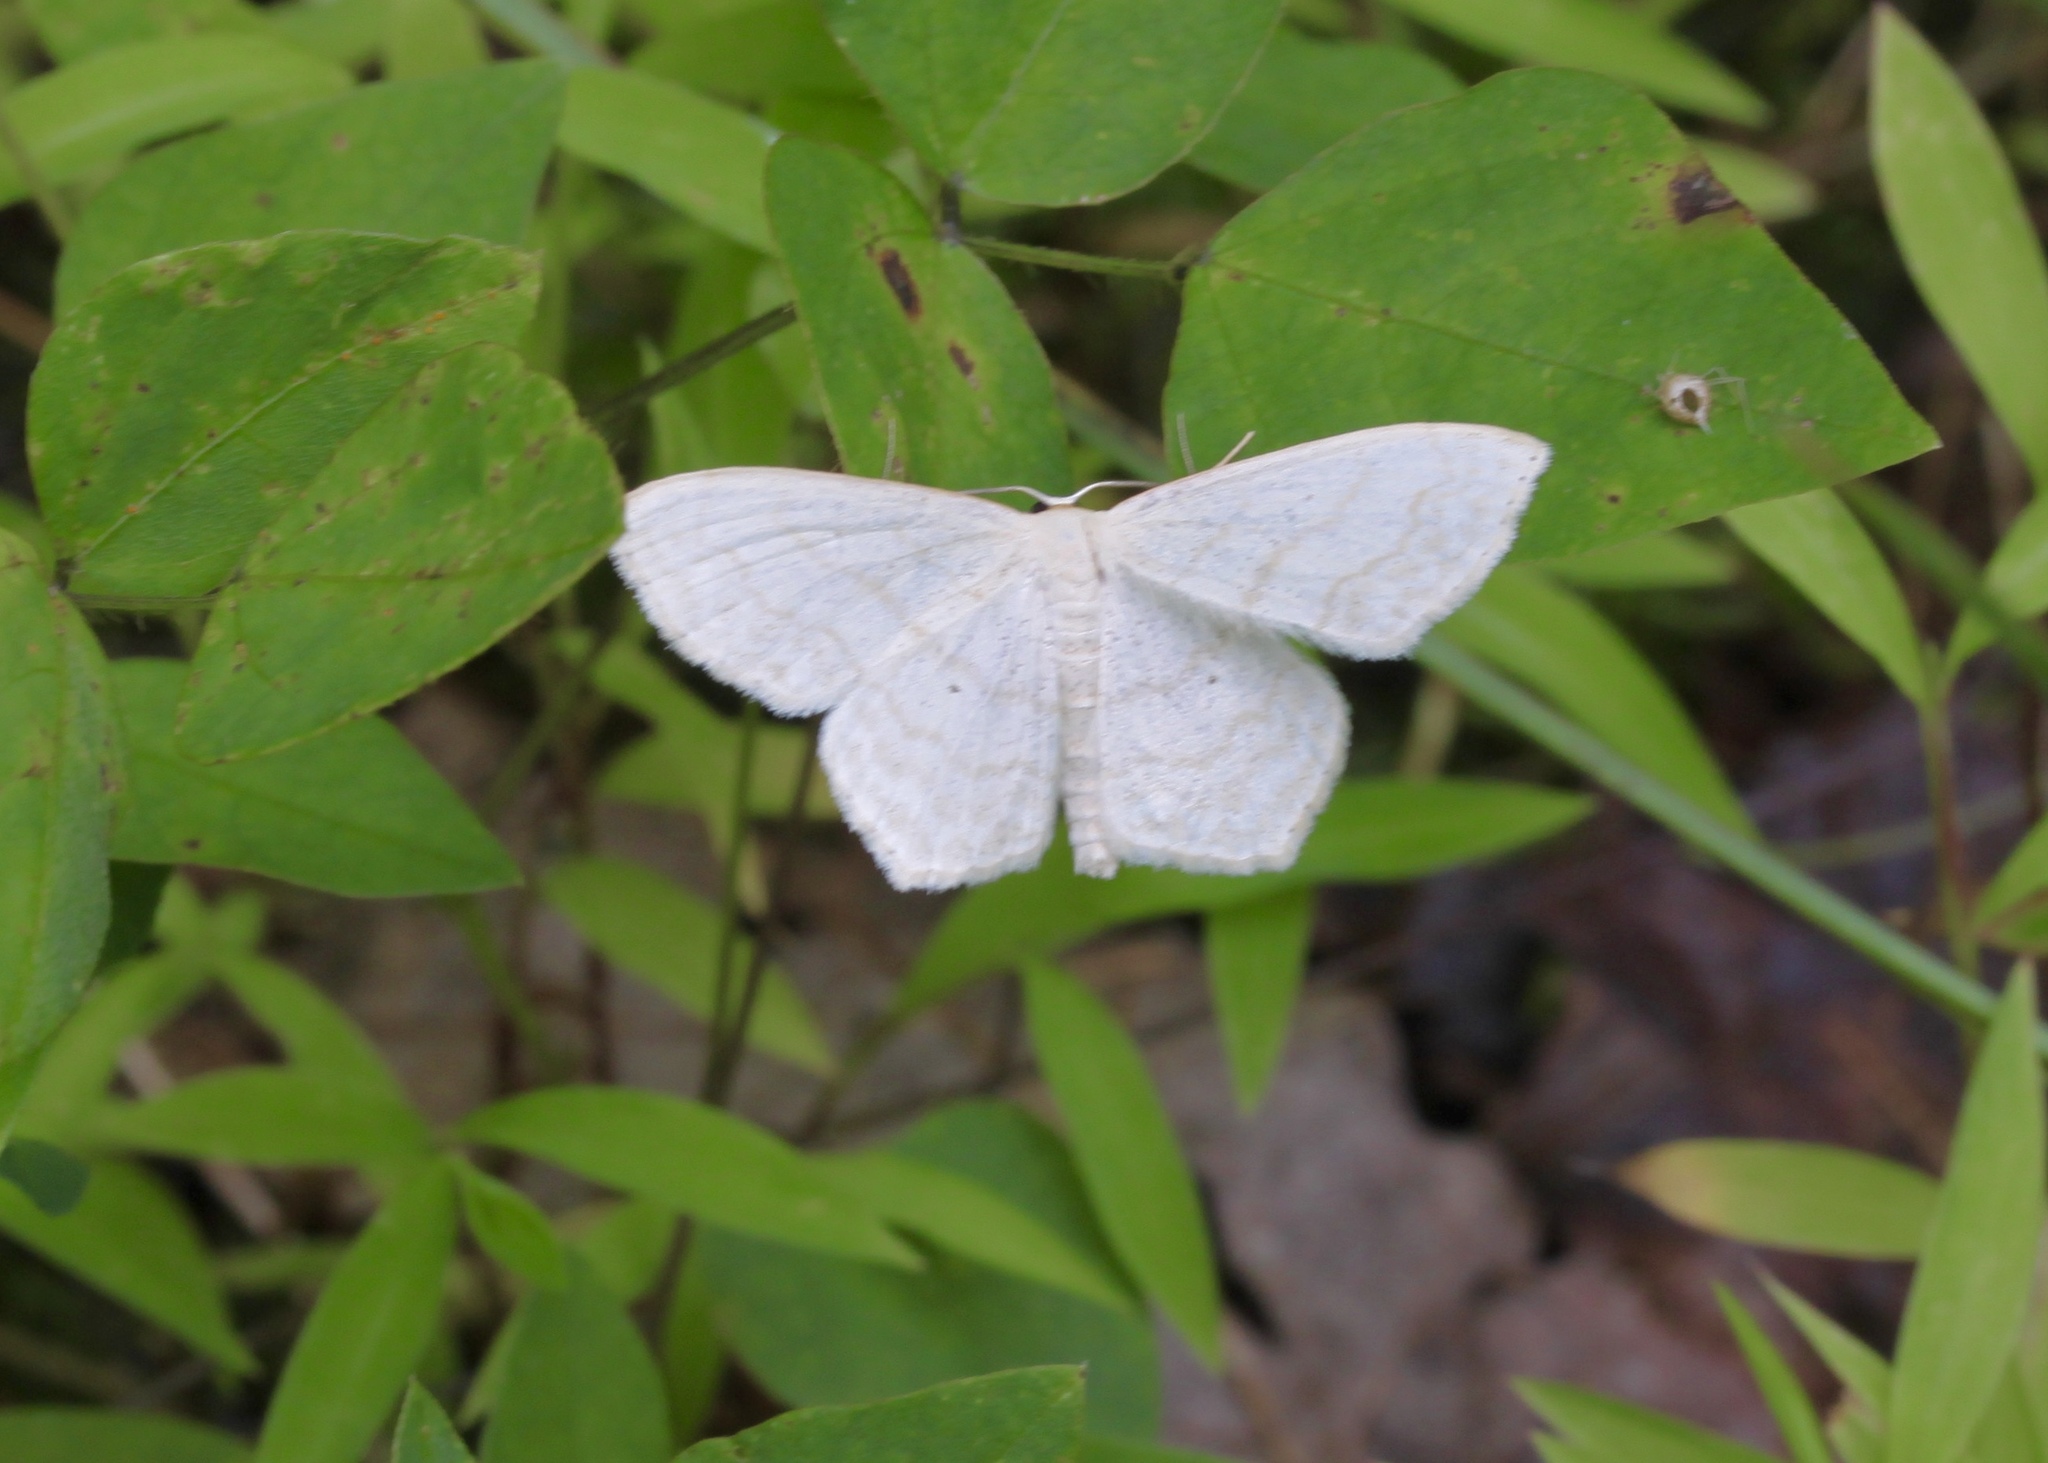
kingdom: Animalia
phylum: Arthropoda
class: Insecta
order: Lepidoptera
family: Geometridae
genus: Scopula
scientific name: Scopula limboundata
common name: Large lace border
